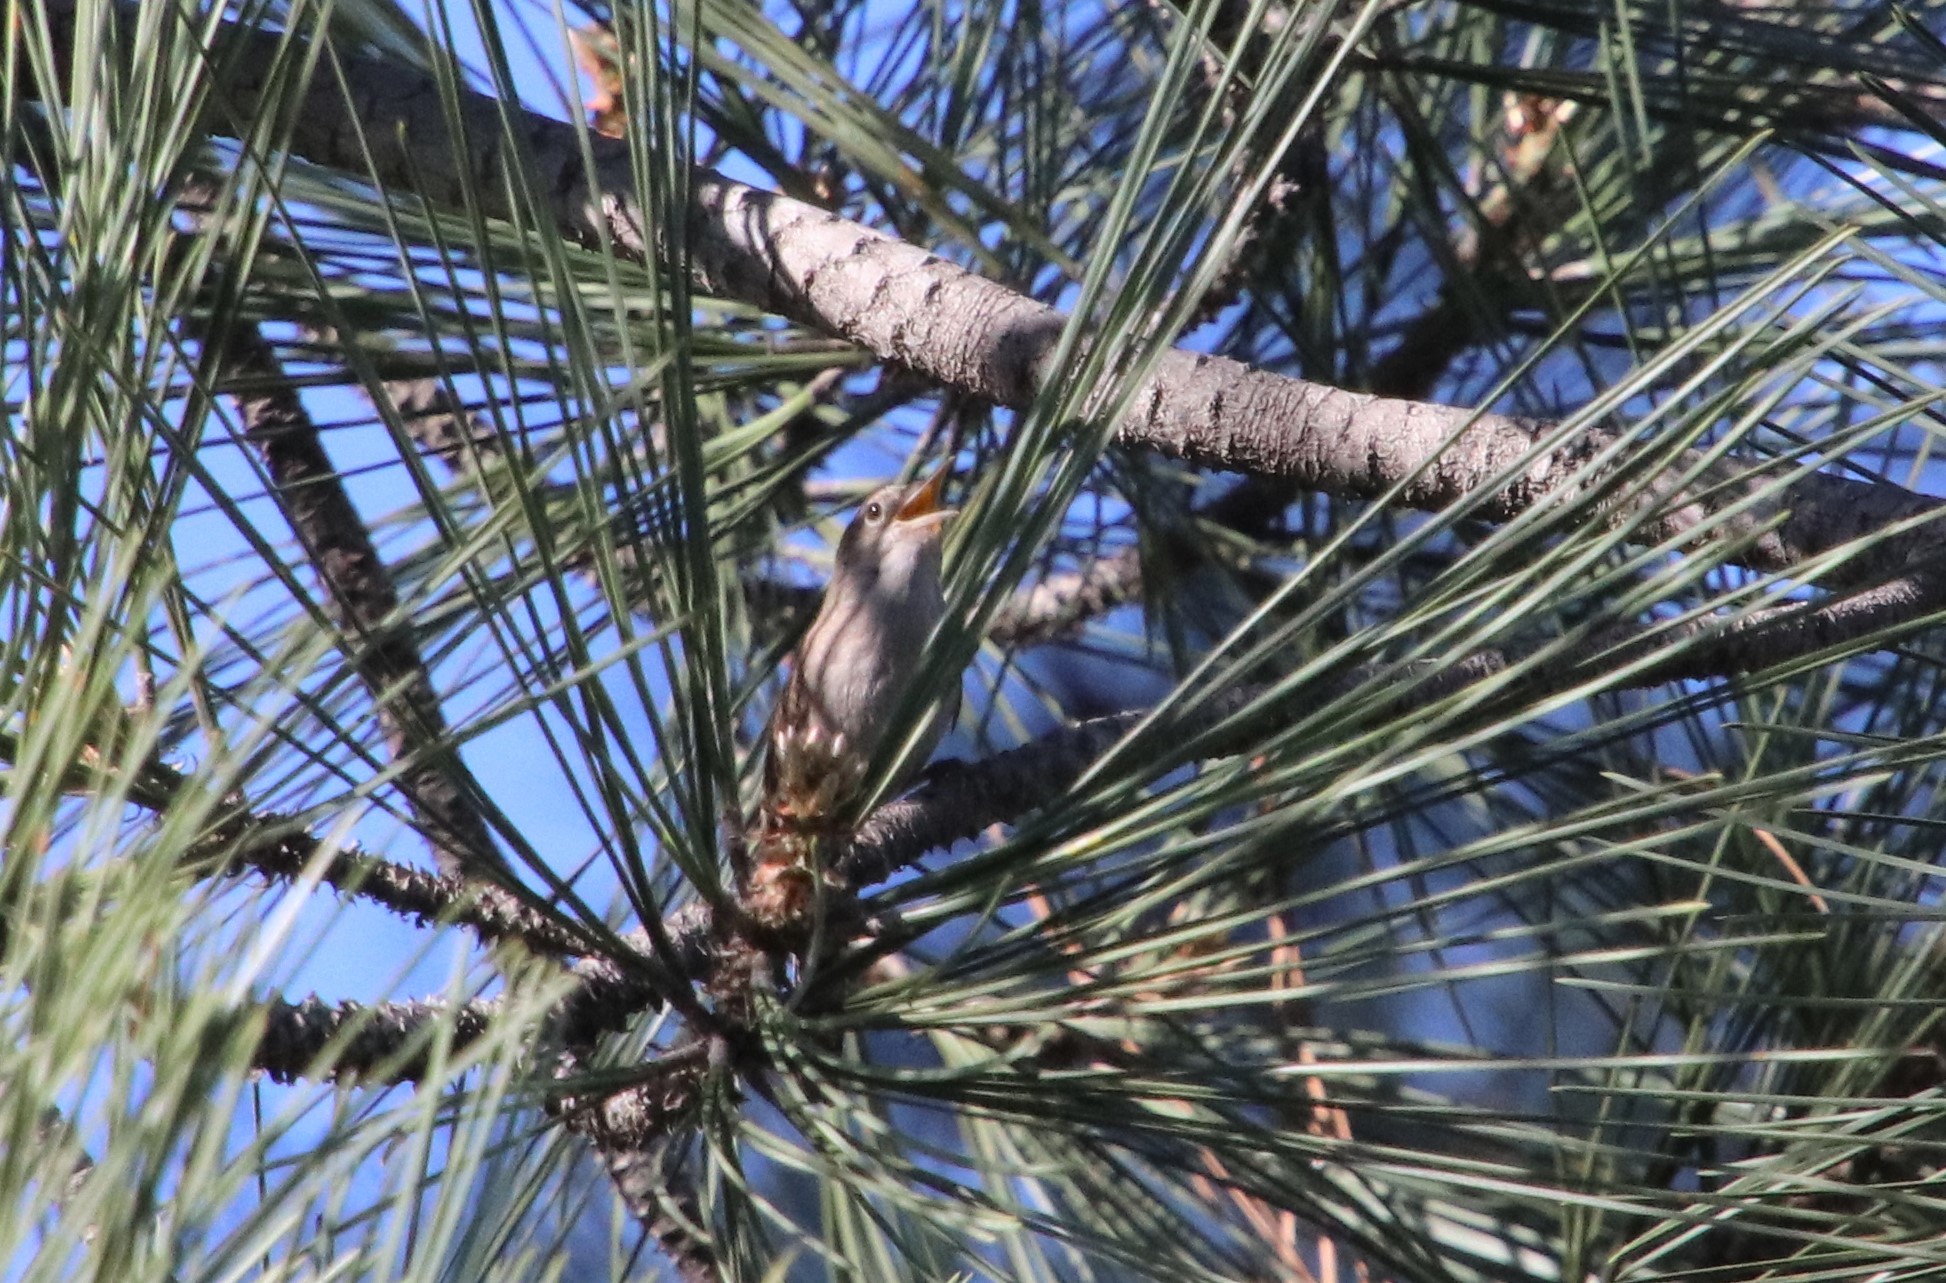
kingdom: Animalia
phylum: Chordata
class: Aves
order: Passeriformes
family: Troglodytidae
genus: Troglodytes
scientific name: Troglodytes aedon
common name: House wren
